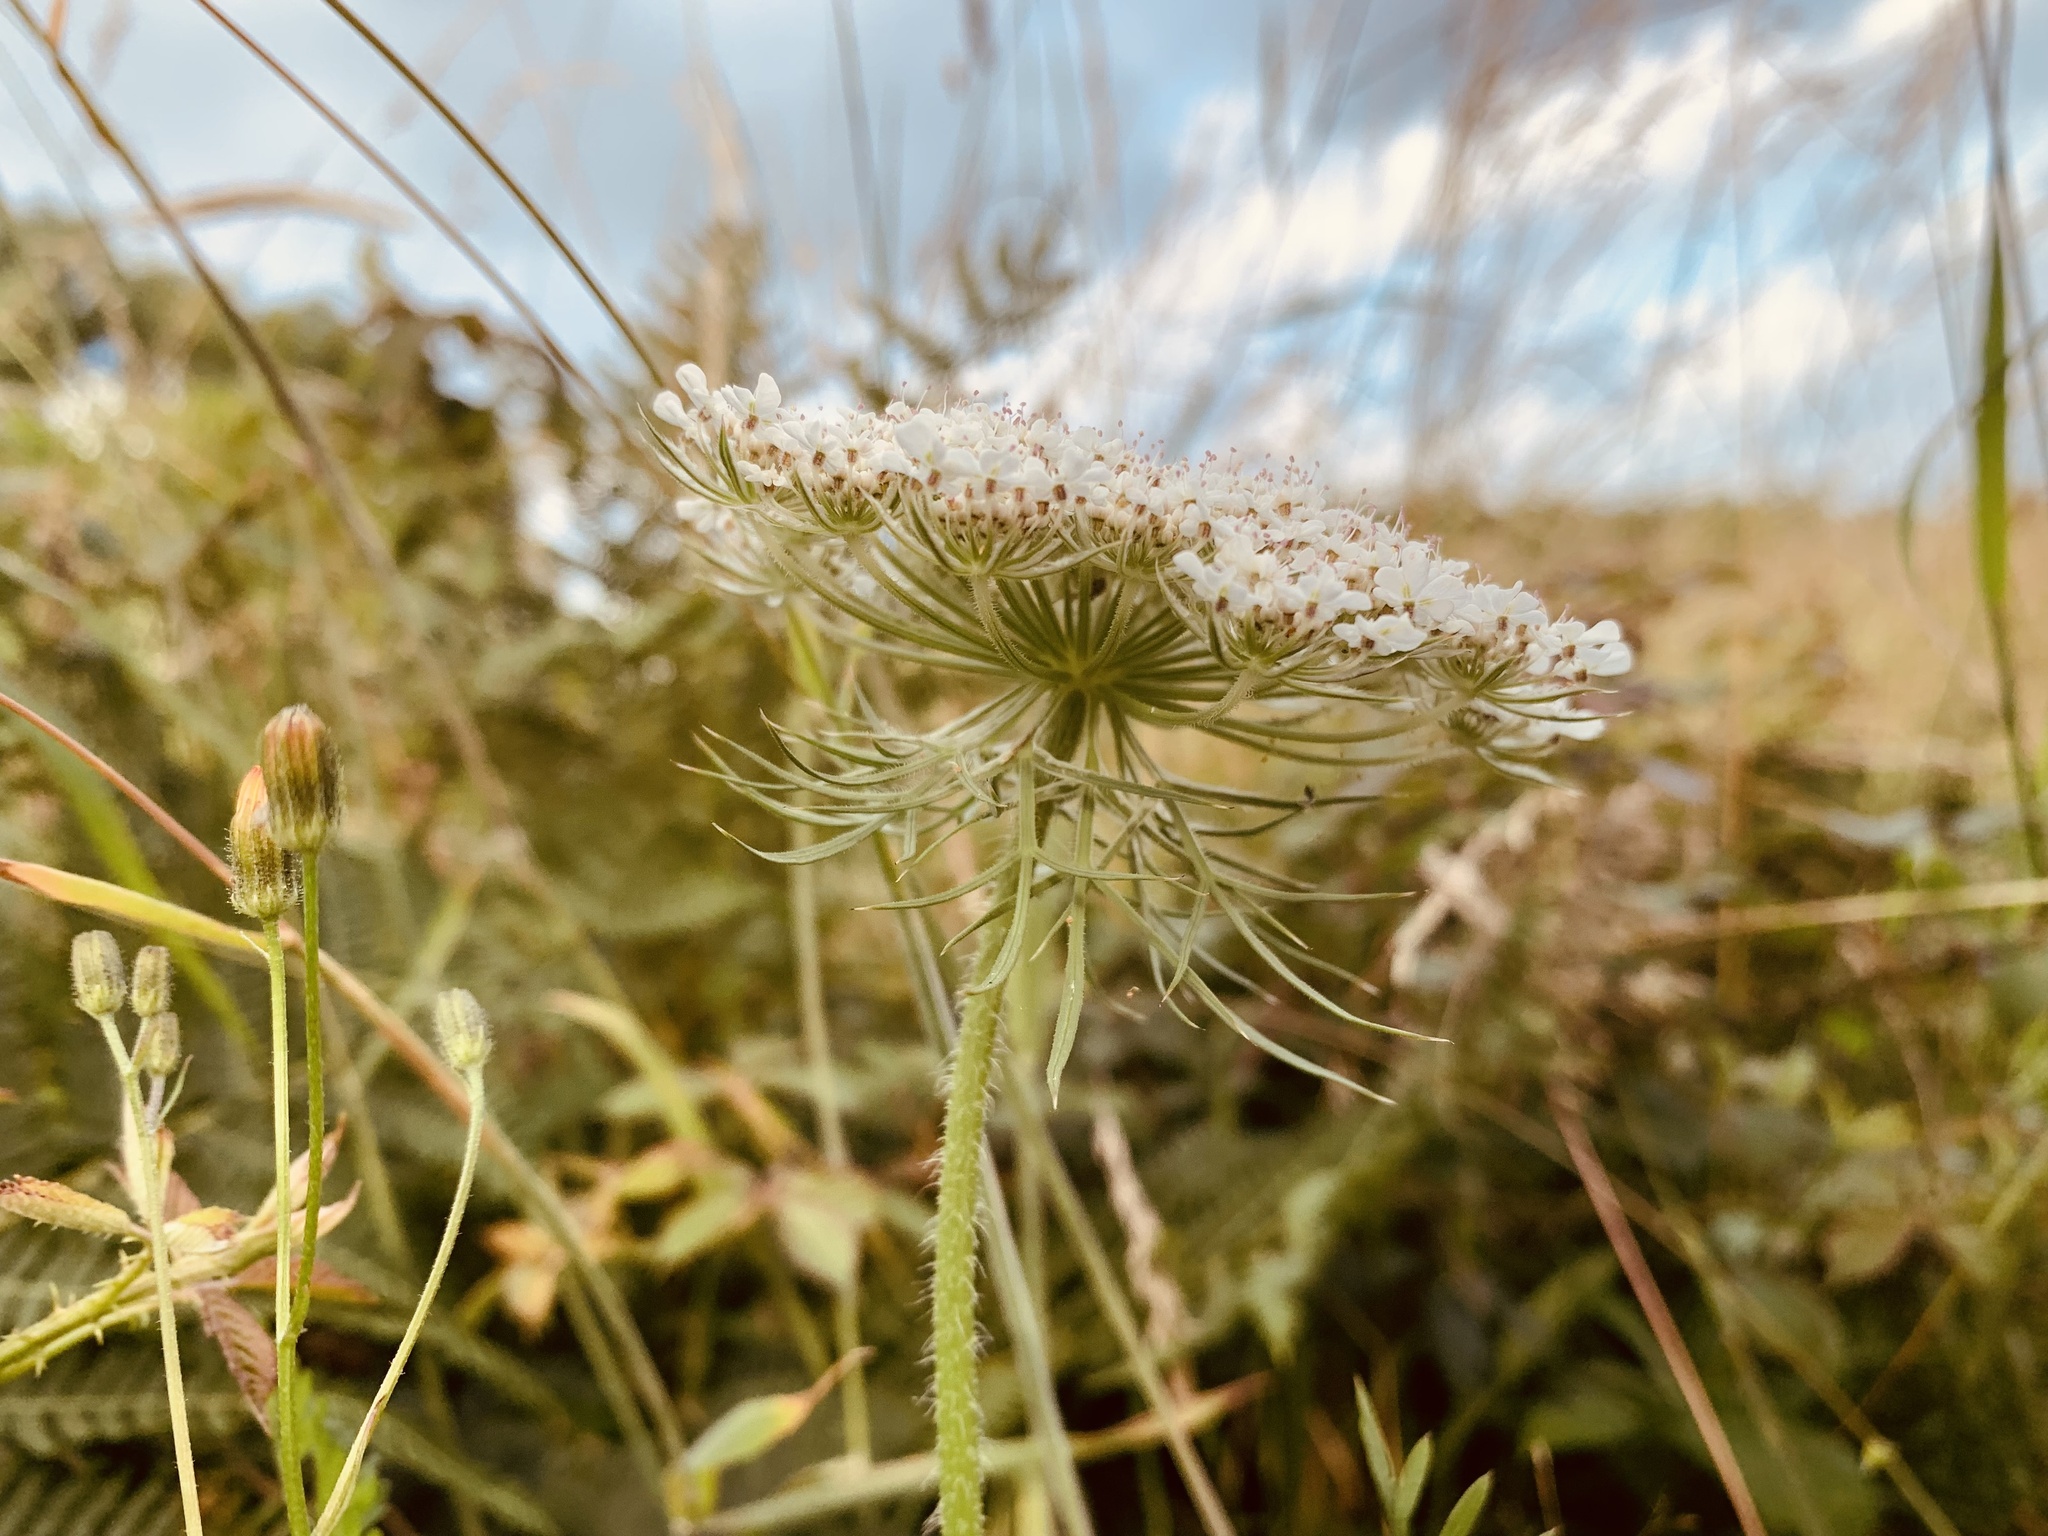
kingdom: Plantae
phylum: Tracheophyta
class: Magnoliopsida
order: Apiales
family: Apiaceae
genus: Daucus
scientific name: Daucus carota
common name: Wild carrot
